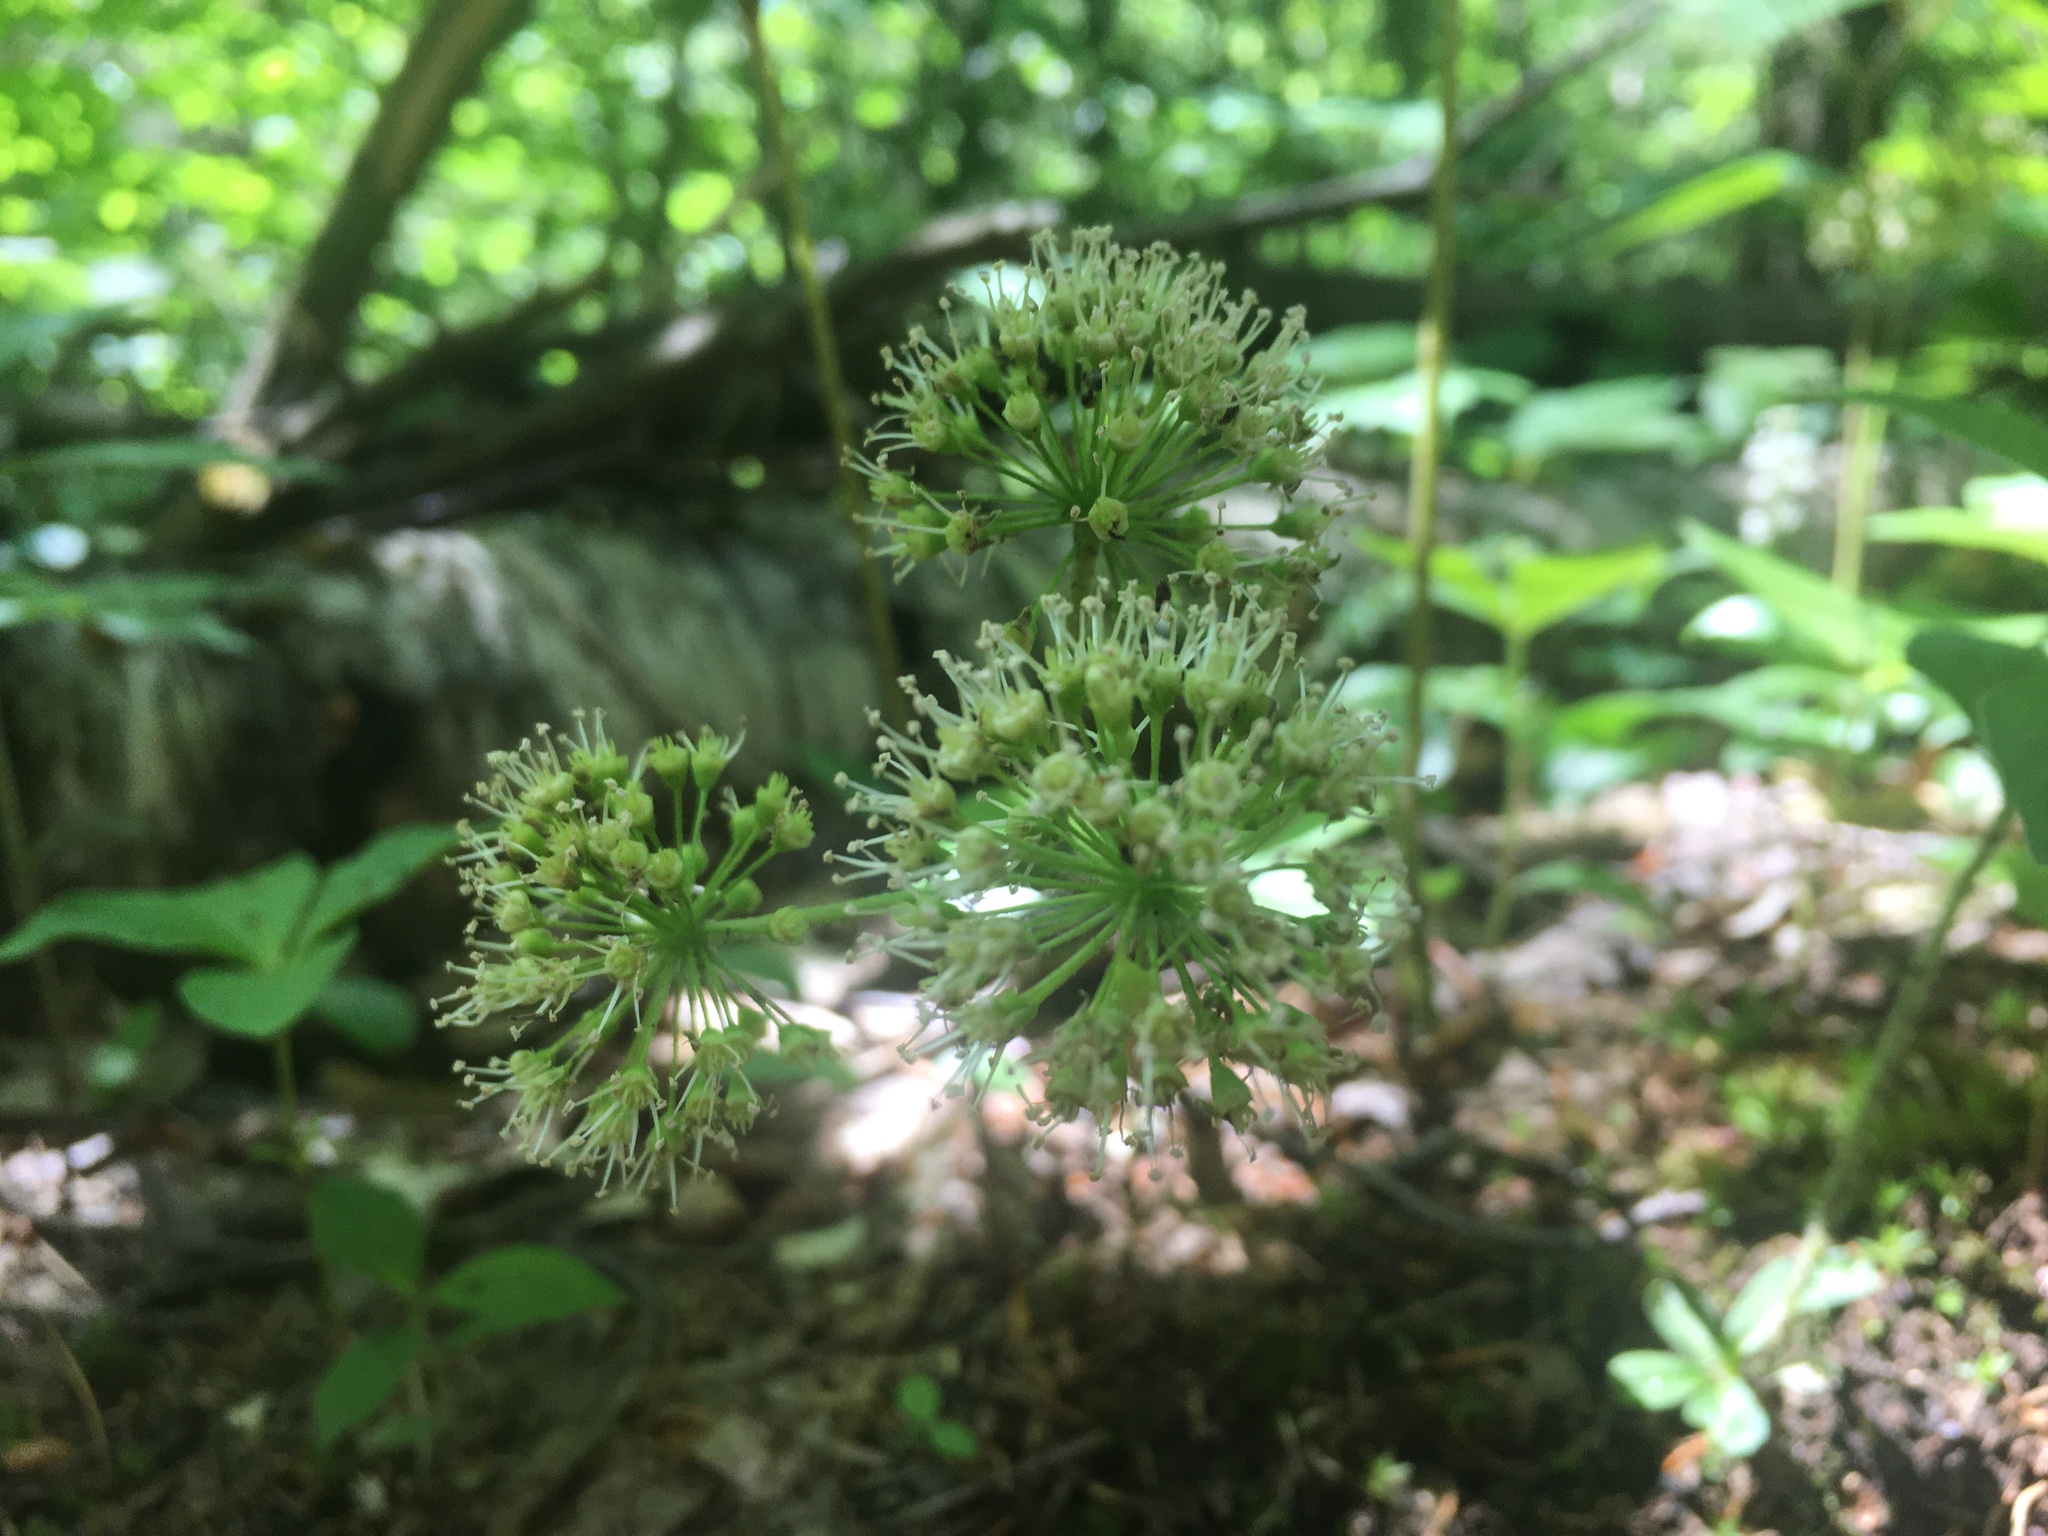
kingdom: Plantae
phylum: Tracheophyta
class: Magnoliopsida
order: Apiales
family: Araliaceae
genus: Aralia
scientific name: Aralia nudicaulis
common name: Wild sarsaparilla
